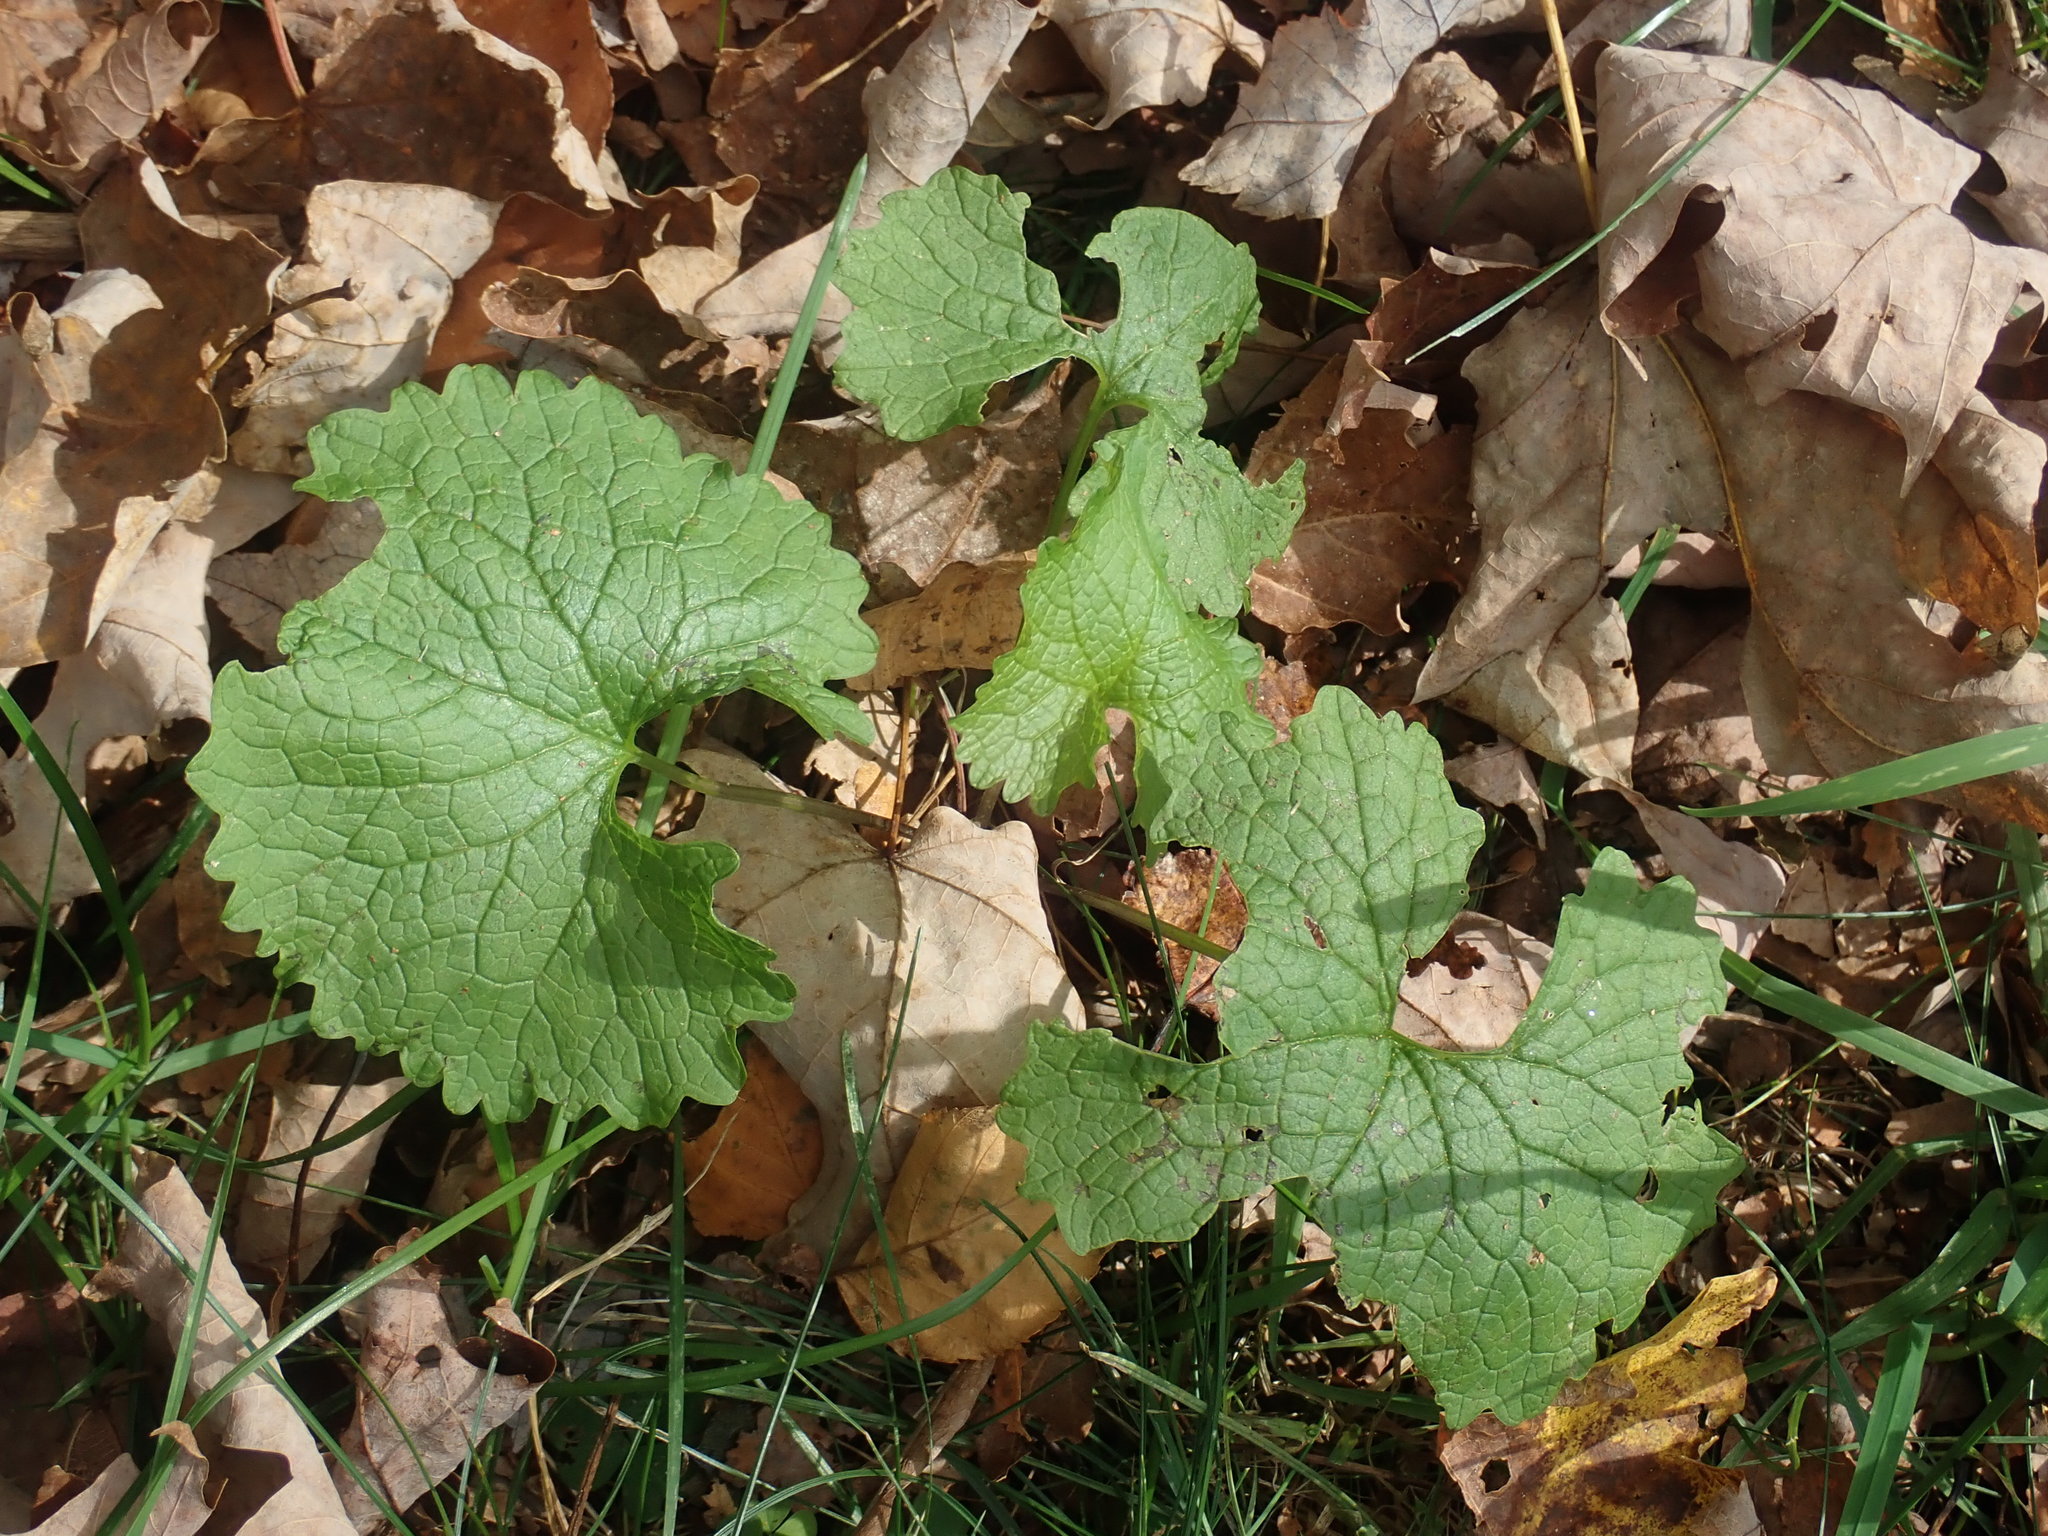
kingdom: Plantae
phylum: Tracheophyta
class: Magnoliopsida
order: Brassicales
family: Brassicaceae
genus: Alliaria
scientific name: Alliaria petiolata
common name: Garlic mustard
